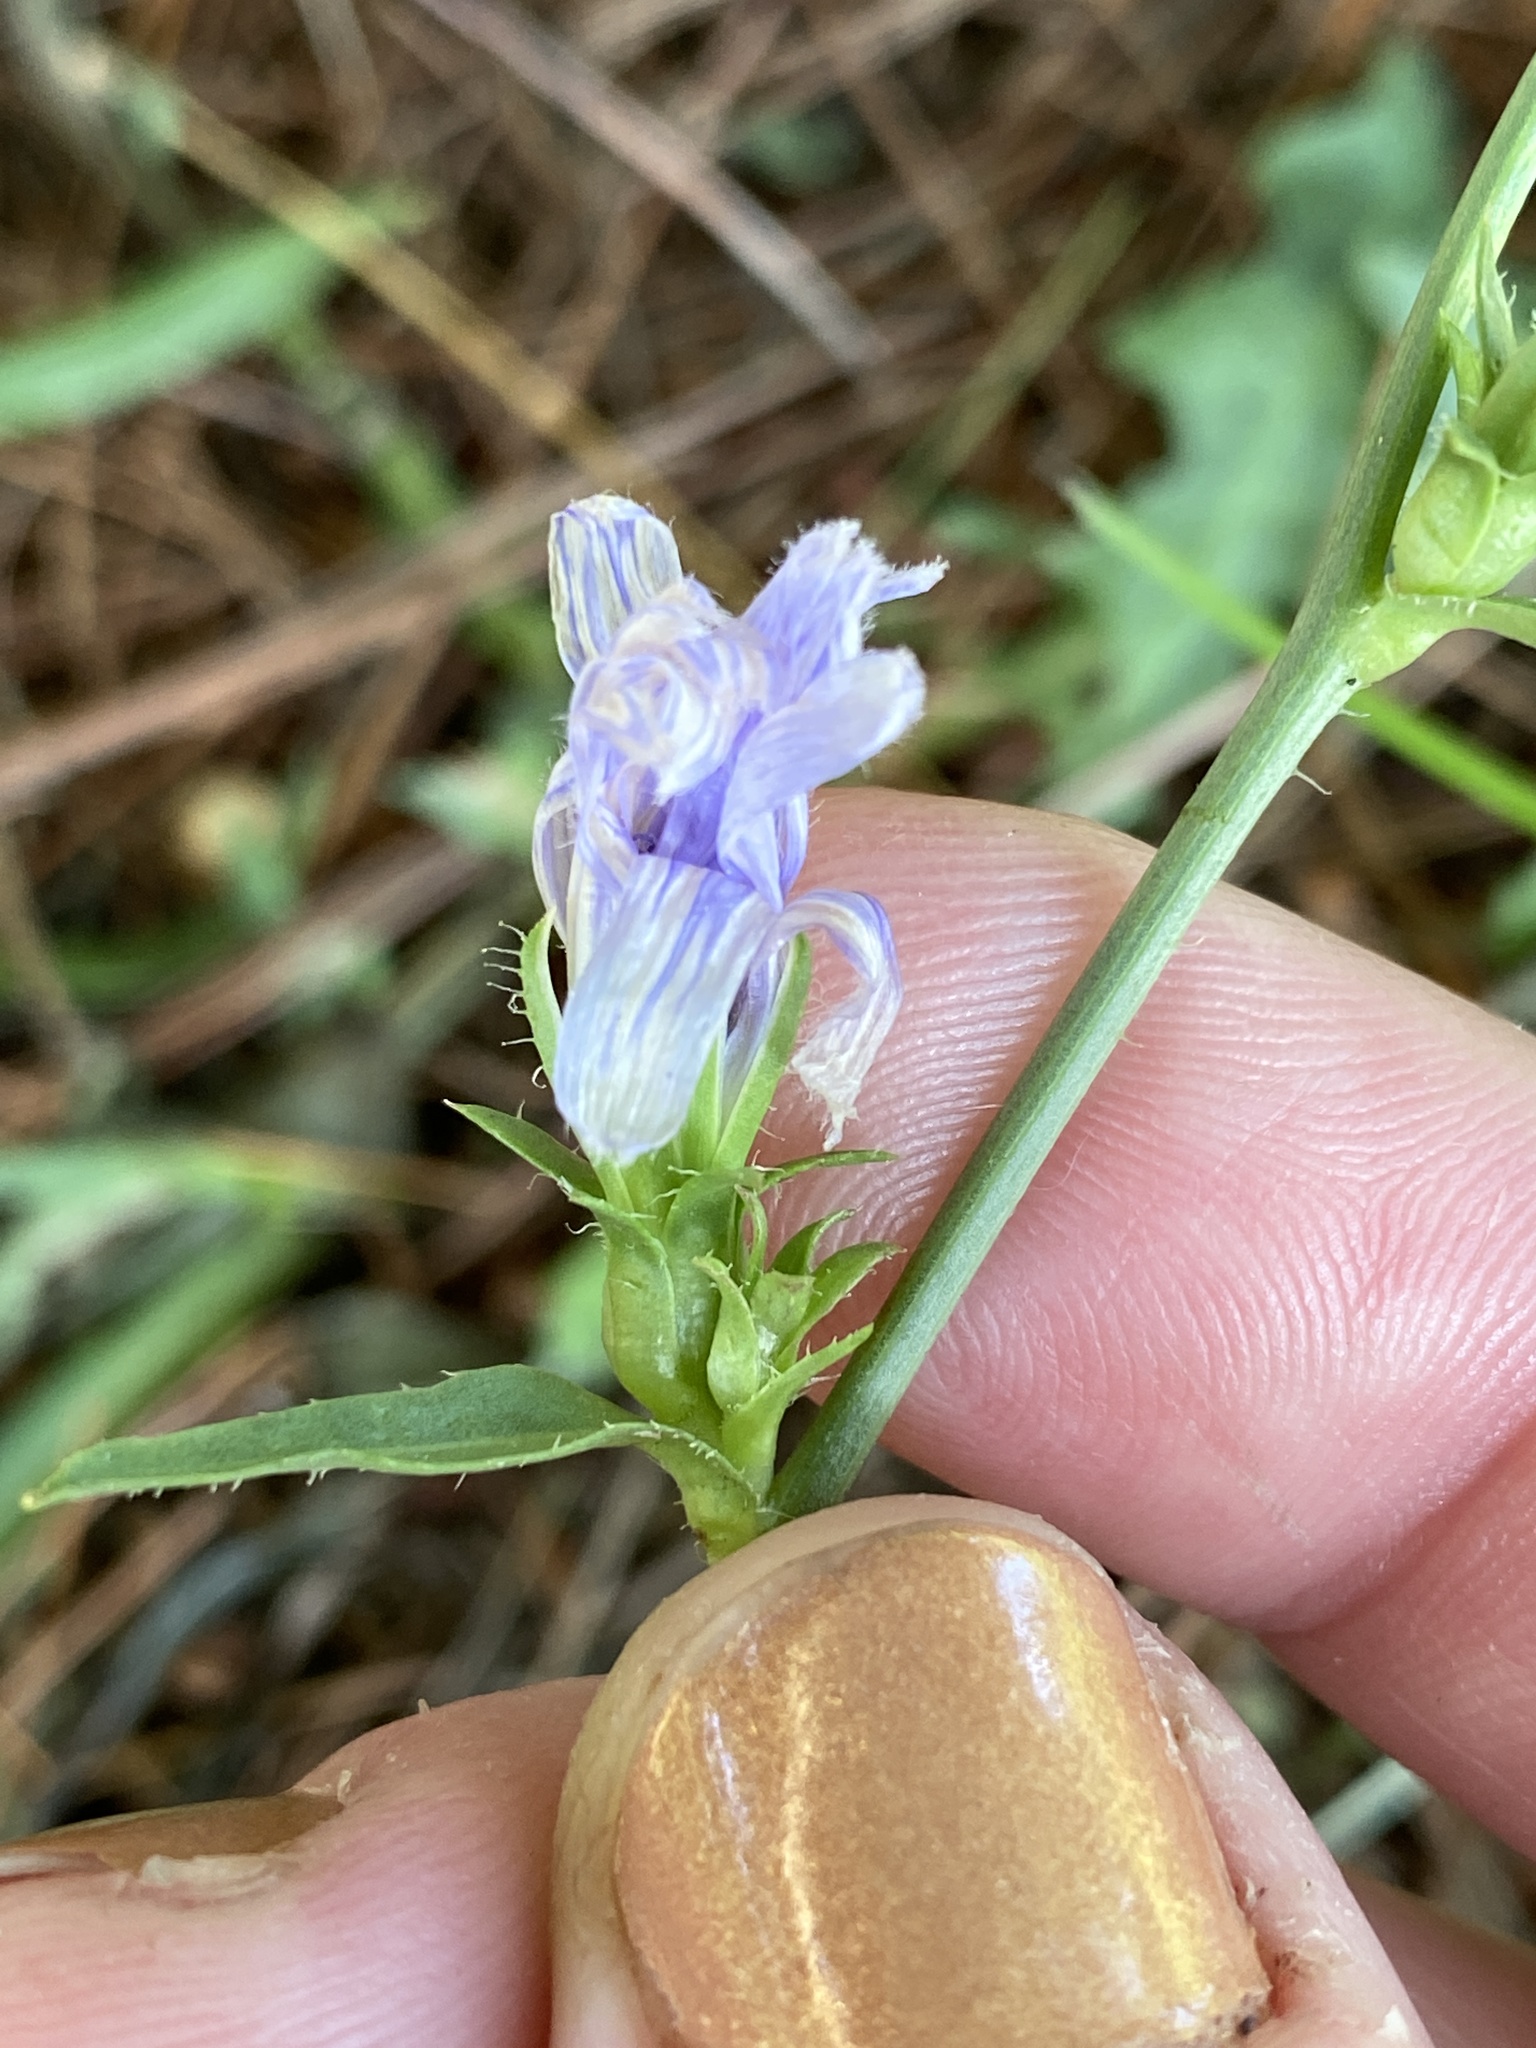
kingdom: Plantae
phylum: Tracheophyta
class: Magnoliopsida
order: Asterales
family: Asteraceae
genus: Cichorium
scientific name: Cichorium intybus
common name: Chicory
